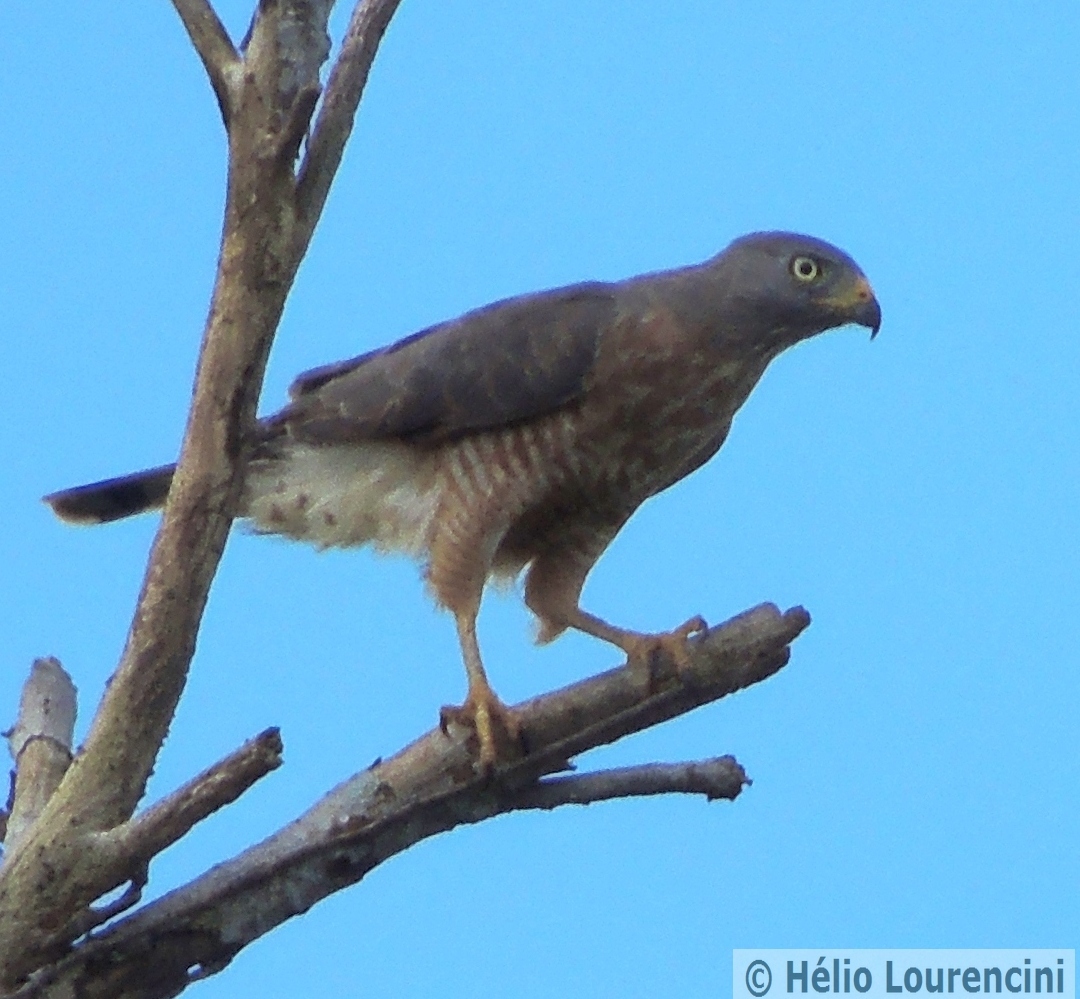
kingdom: Animalia
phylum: Chordata
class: Aves
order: Accipitriformes
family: Accipitridae
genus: Rupornis
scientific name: Rupornis magnirostris
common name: Roadside hawk
